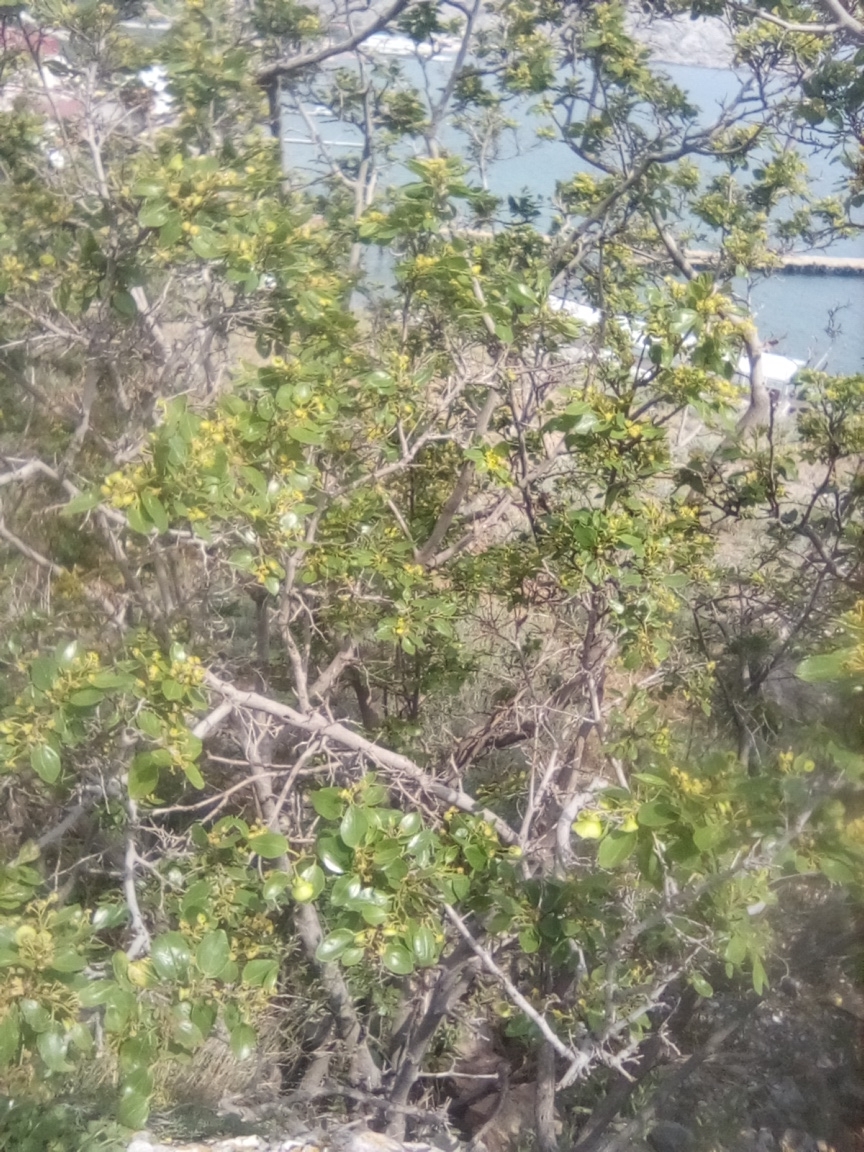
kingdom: Plantae
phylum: Tracheophyta
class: Magnoliopsida
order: Rosales
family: Rhamnaceae
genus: Paliurus
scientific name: Paliurus spina-christi
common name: Jeruselem thorn
